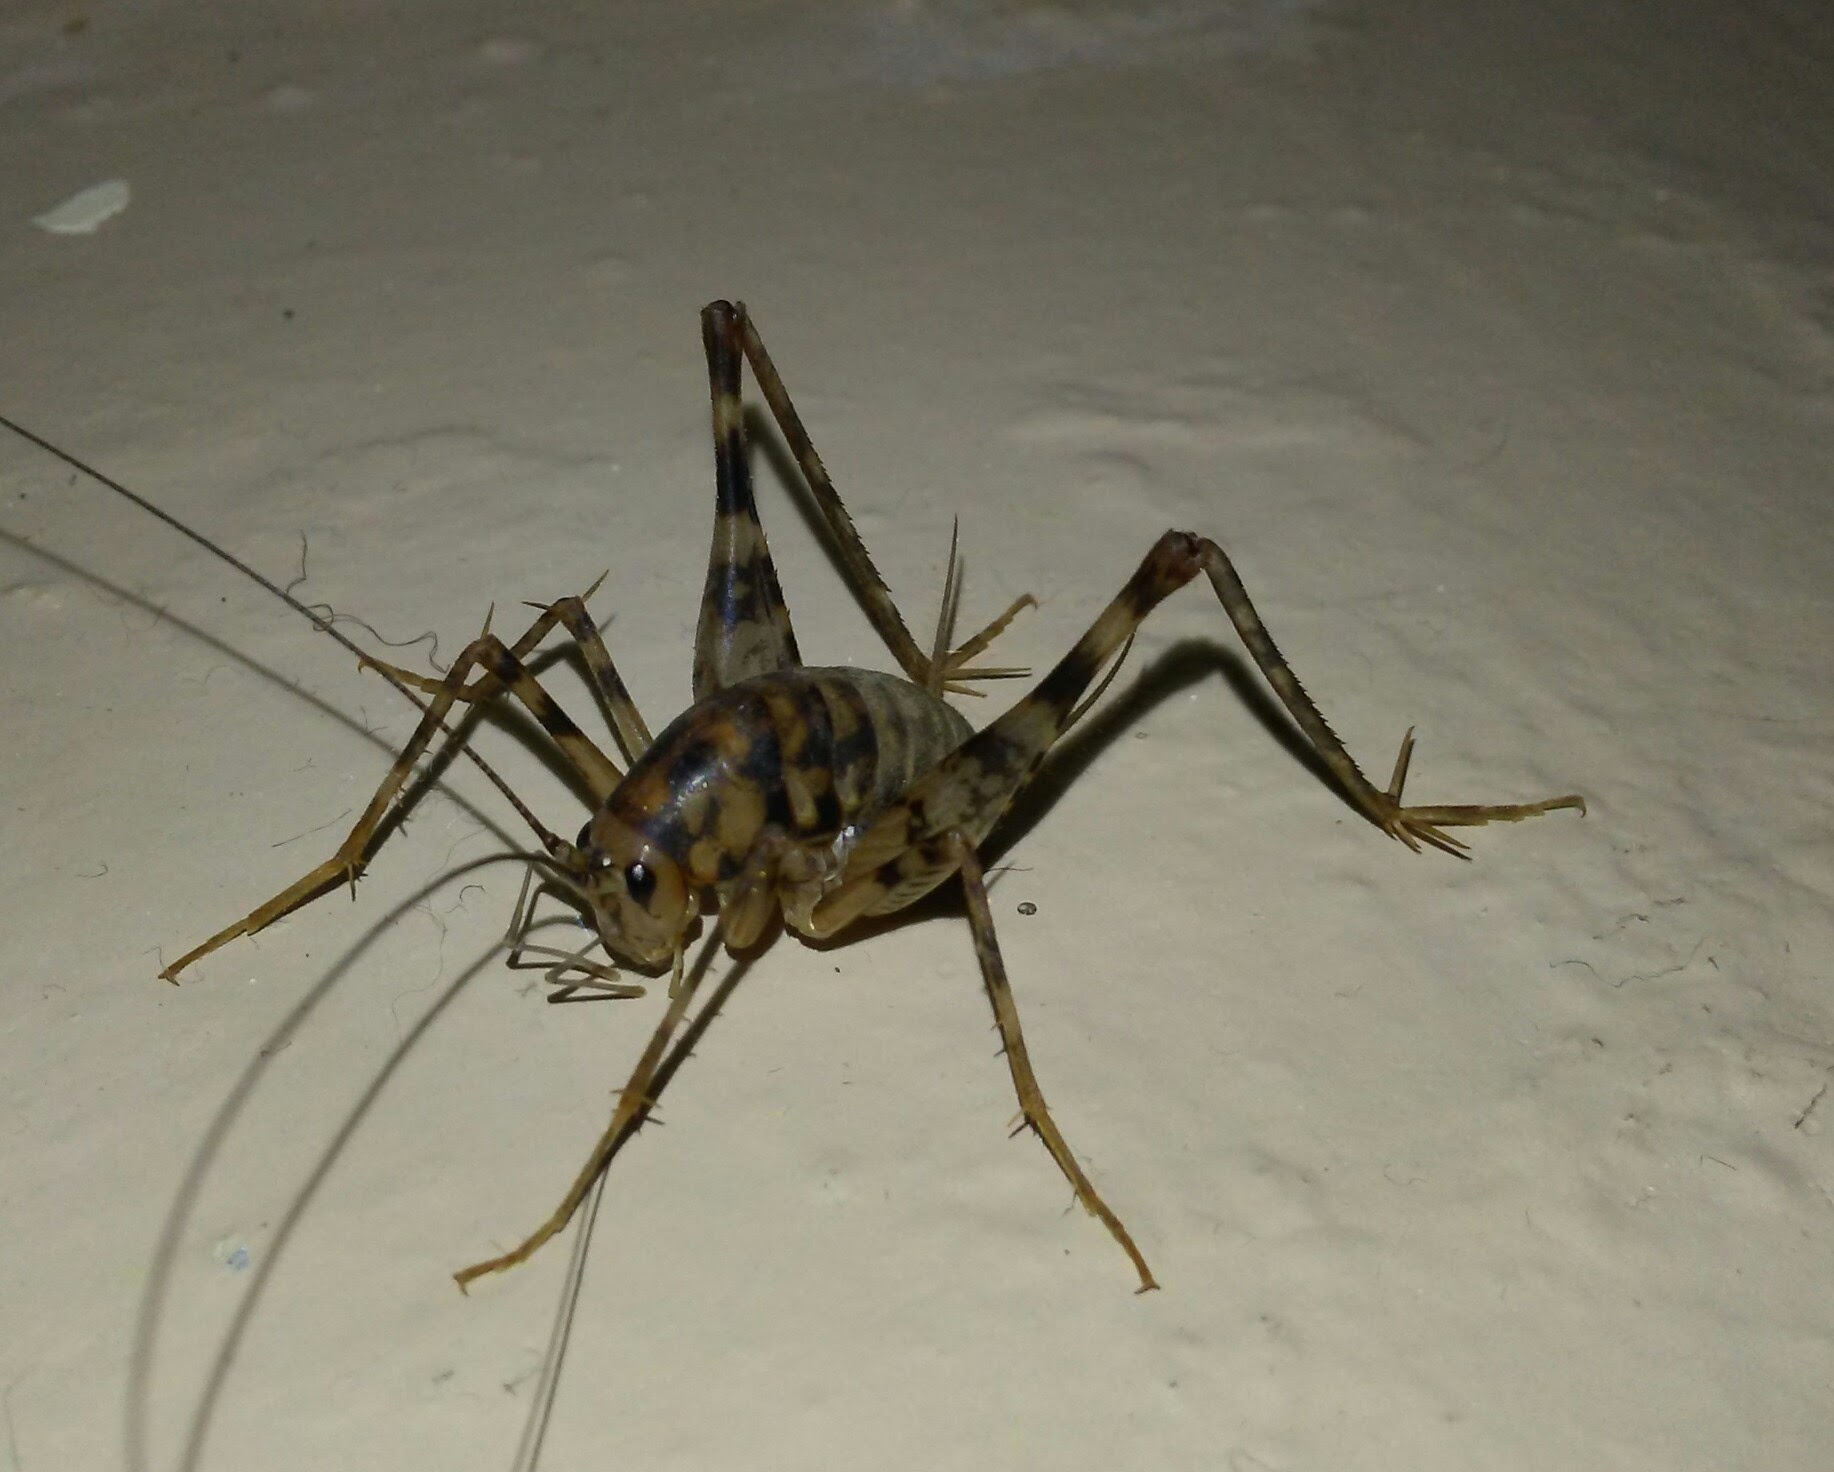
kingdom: Animalia
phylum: Arthropoda
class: Insecta
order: Orthoptera
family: Rhaphidophoridae
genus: Tachycines
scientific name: Tachycines asynamorus
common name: Greenhouse camel cricket
